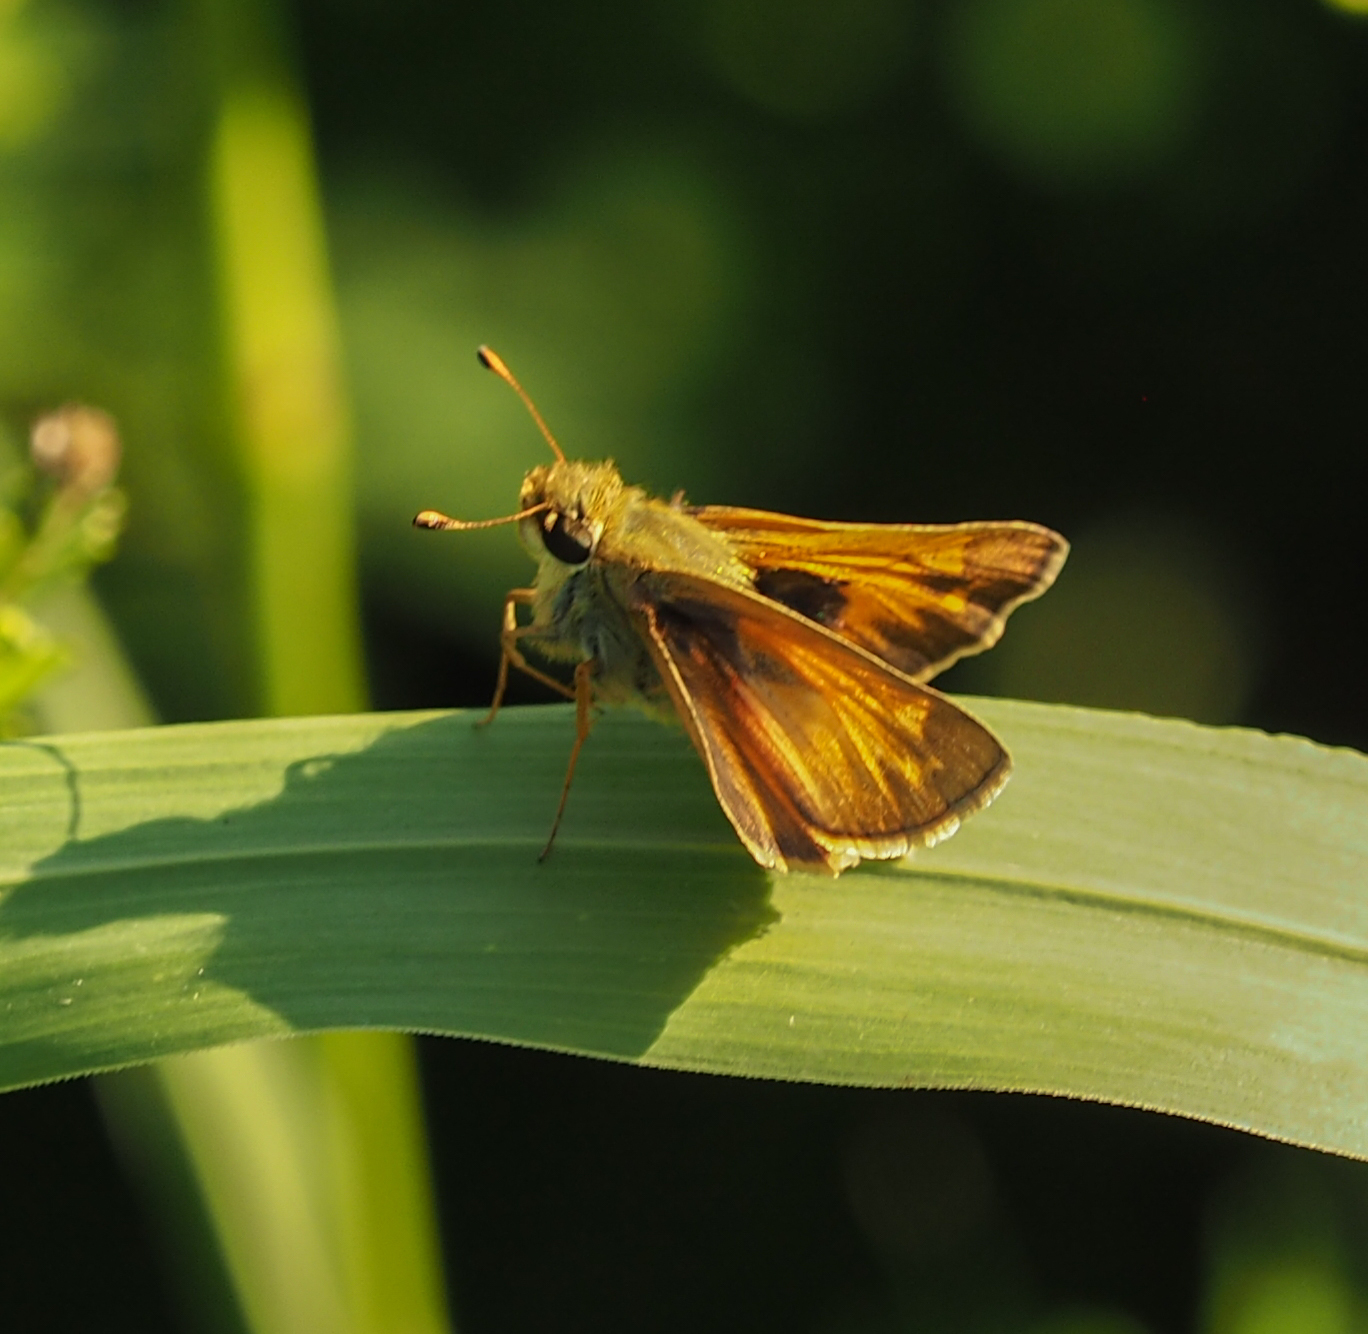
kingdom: Animalia
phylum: Arthropoda
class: Insecta
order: Lepidoptera
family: Hesperiidae
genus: Atalopedes
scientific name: Atalopedes
